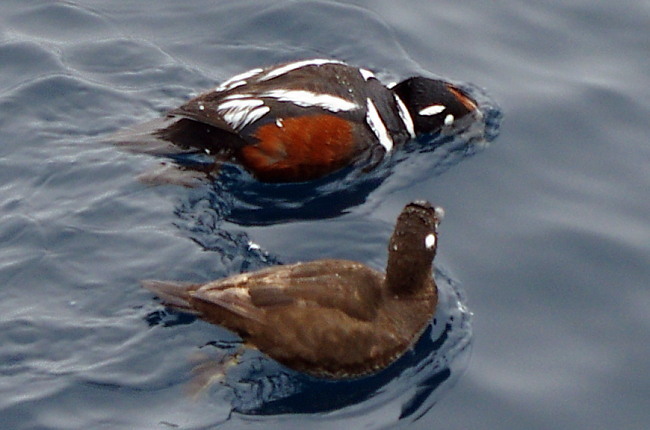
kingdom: Animalia
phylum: Chordata
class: Aves
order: Anseriformes
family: Anatidae
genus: Histrionicus
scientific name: Histrionicus histrionicus
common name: Harlequin duck
